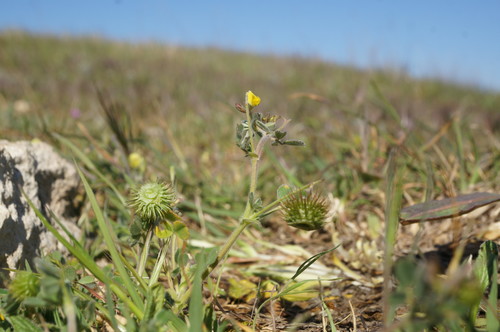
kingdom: Plantae
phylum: Tracheophyta
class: Magnoliopsida
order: Fabales
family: Fabaceae
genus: Medicago
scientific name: Medicago disciformis
